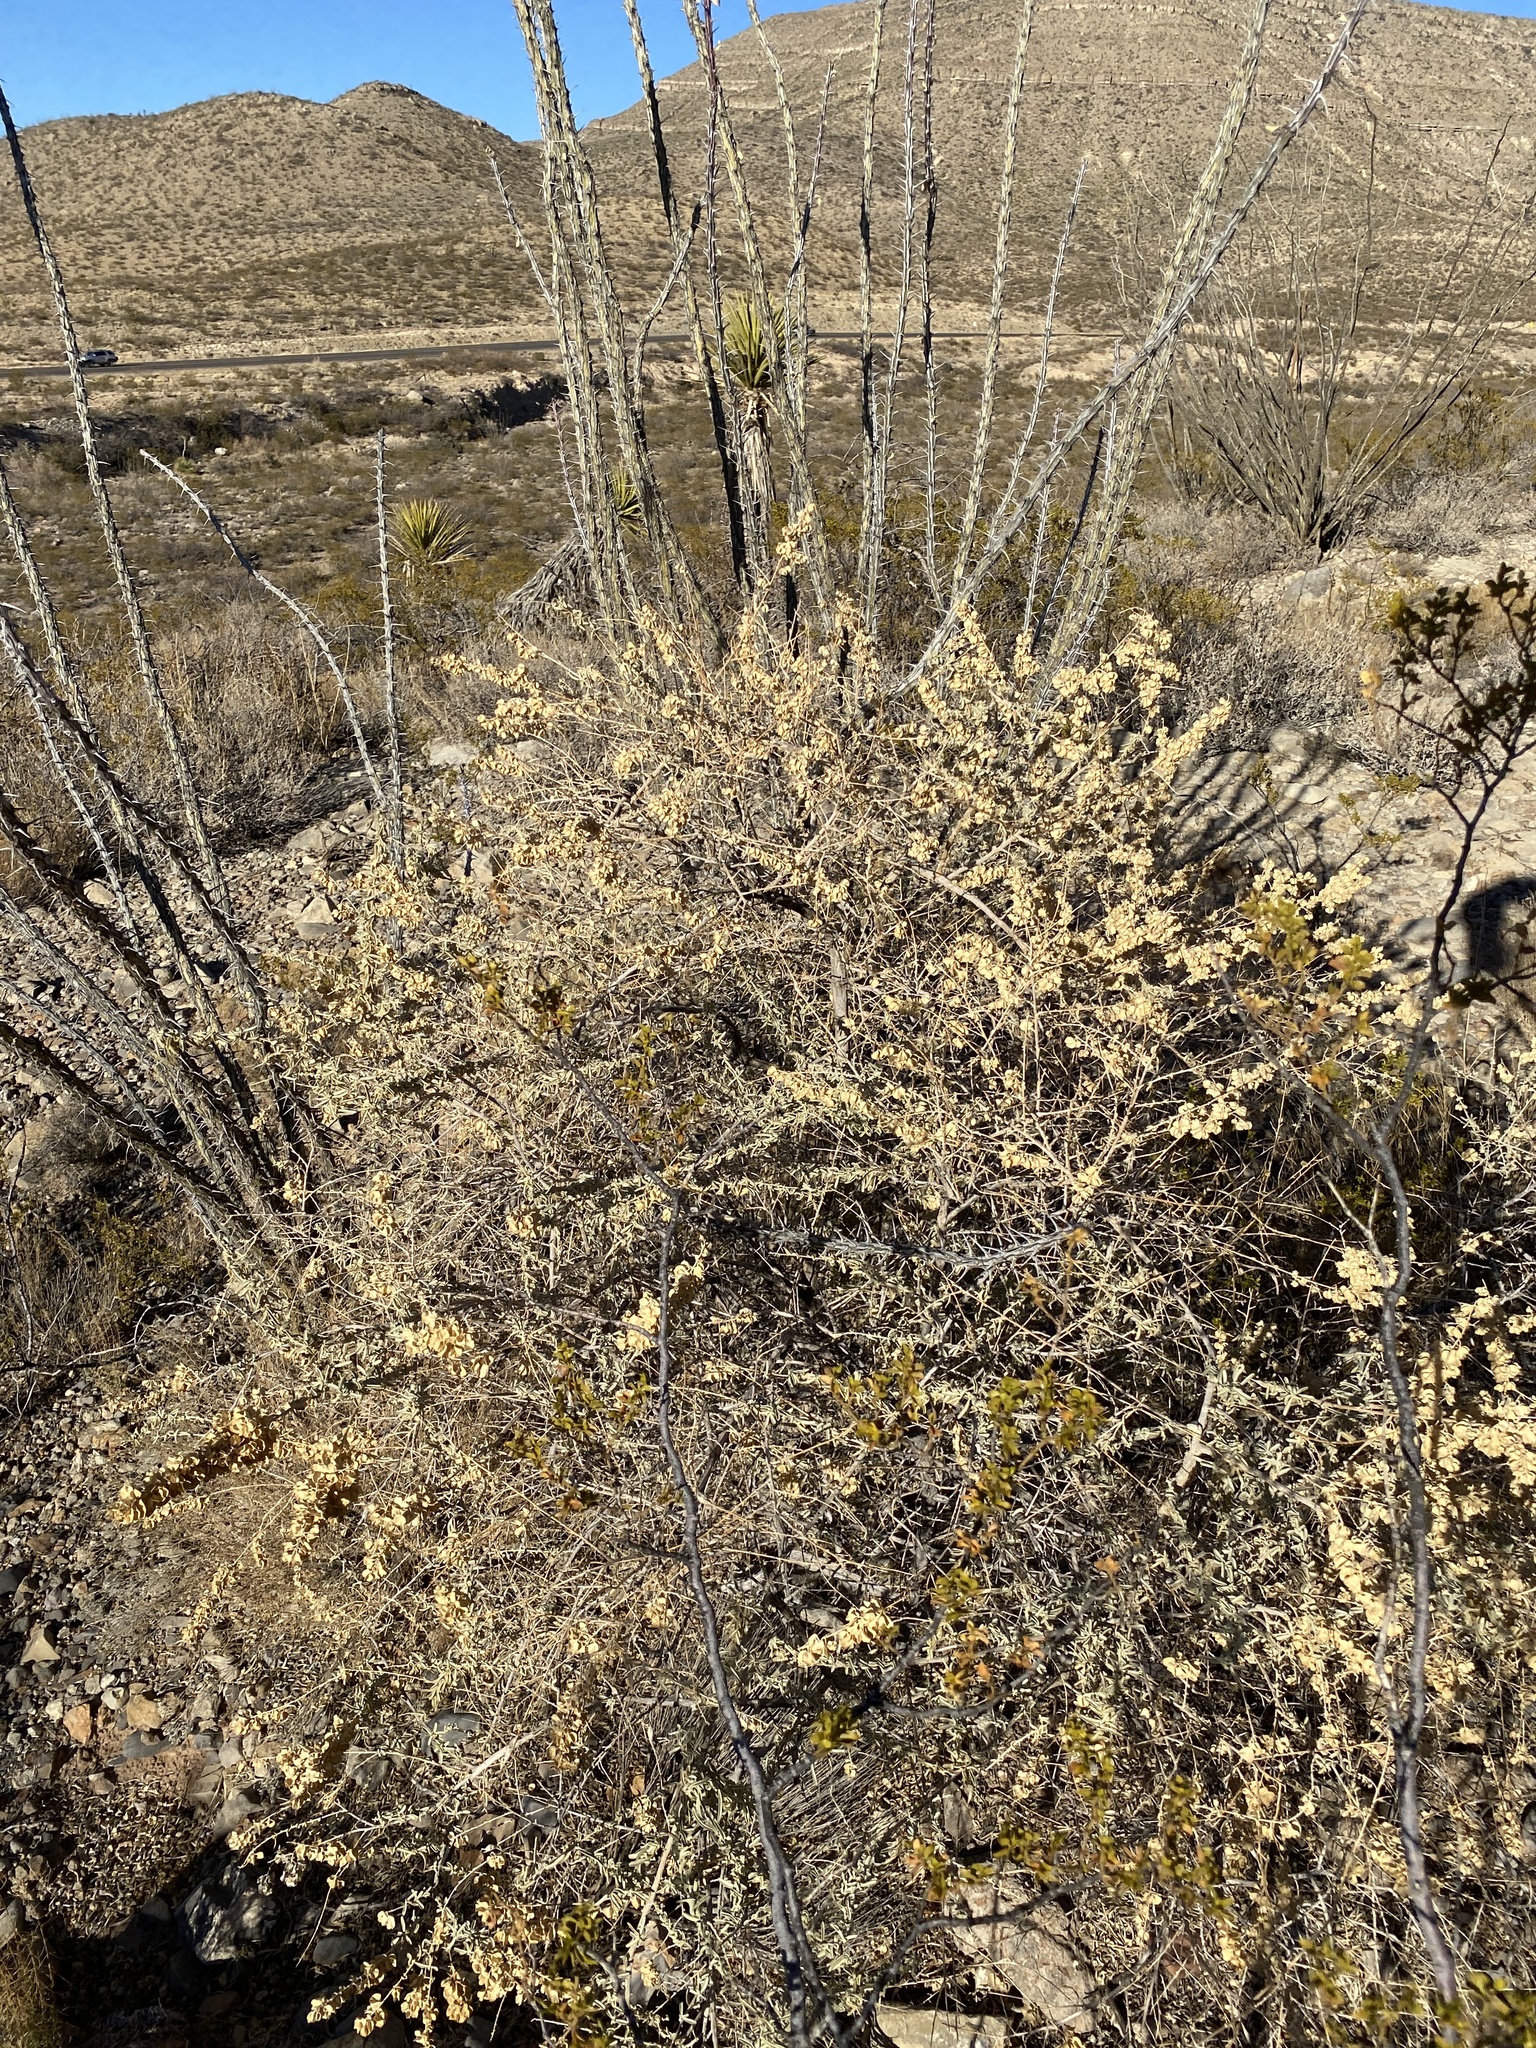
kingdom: Plantae
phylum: Tracheophyta
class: Magnoliopsida
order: Caryophyllales
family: Amaranthaceae
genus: Atriplex
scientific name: Atriplex canescens
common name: Four-wing saltbush
